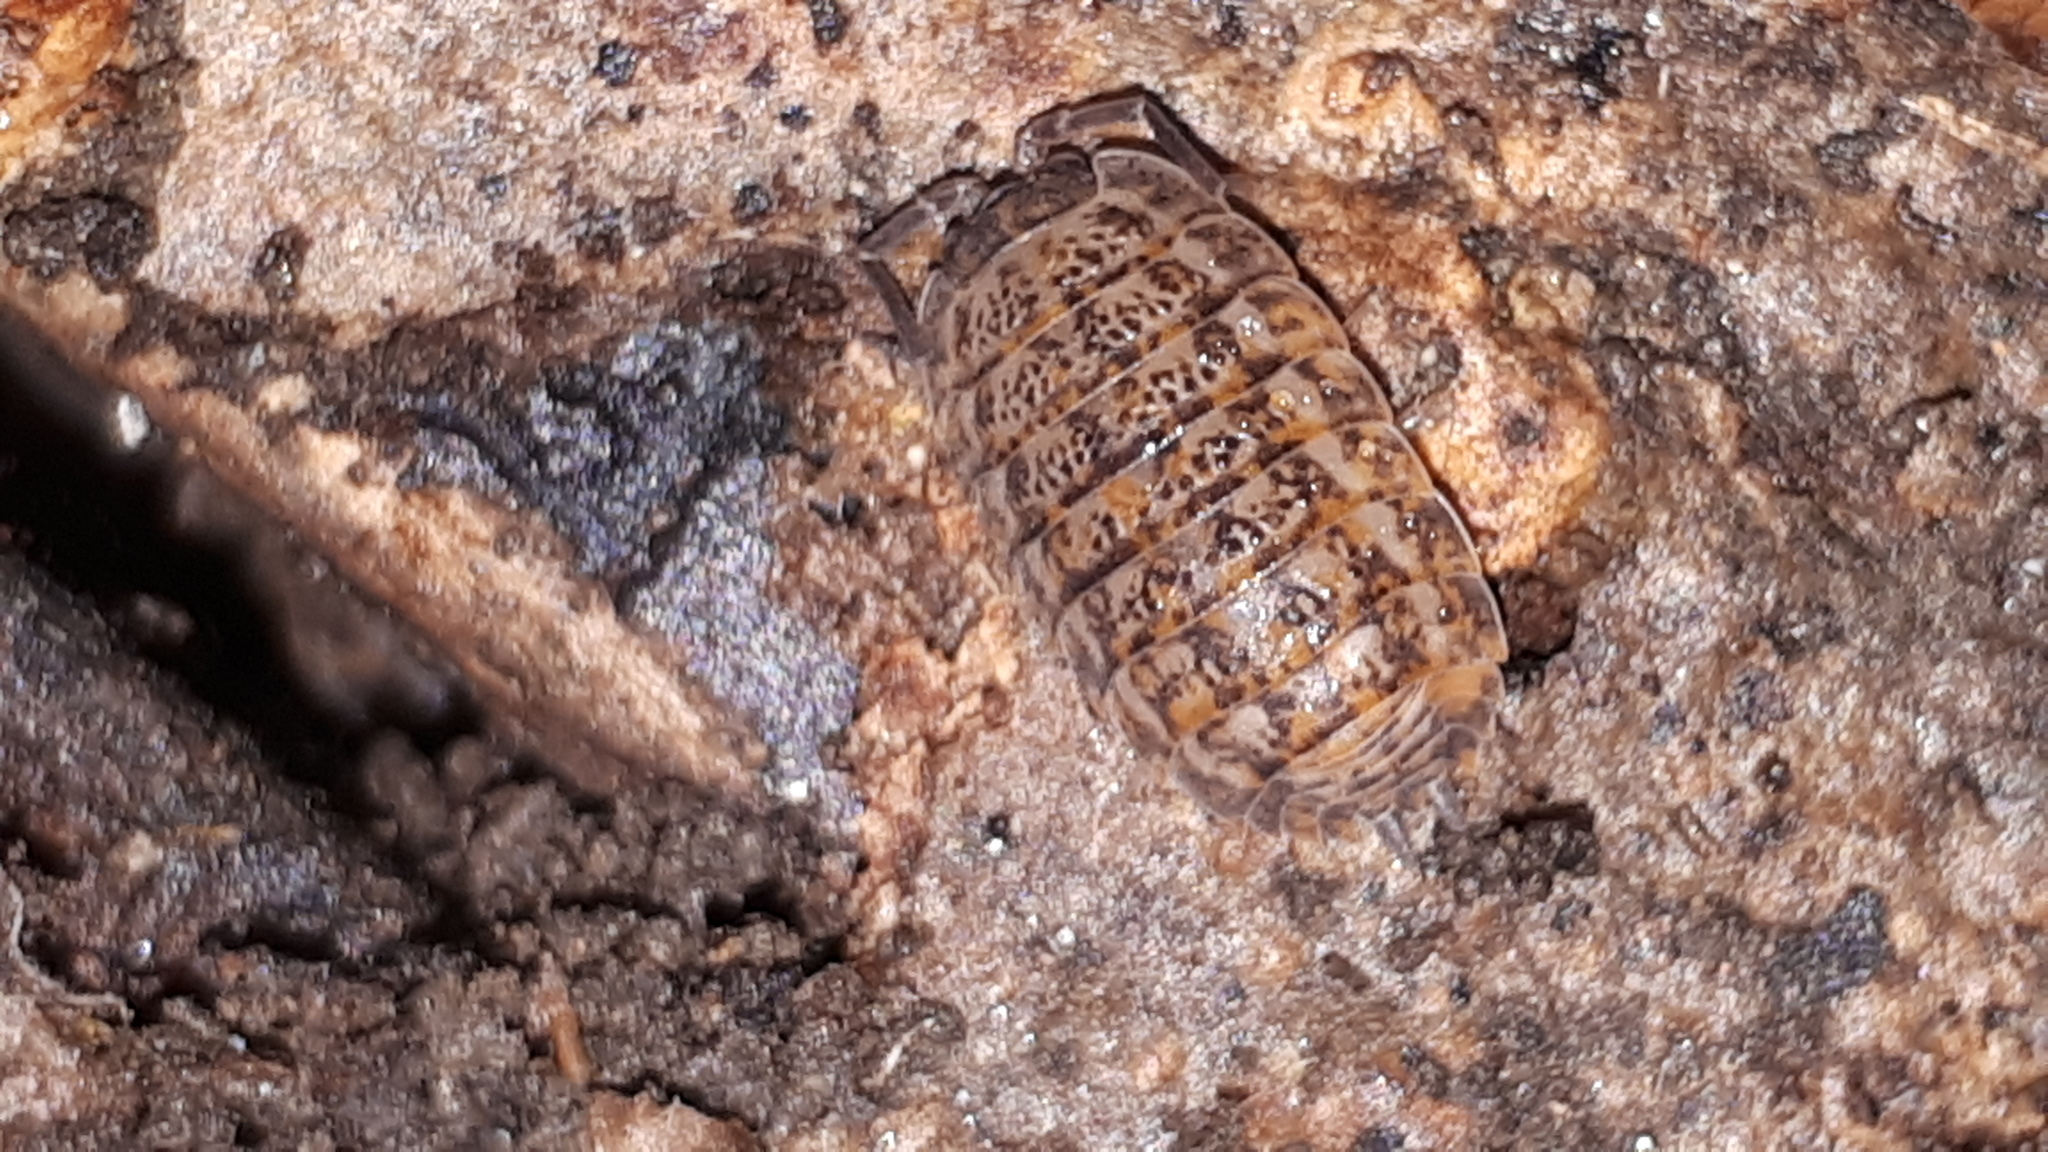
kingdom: Animalia
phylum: Arthropoda
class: Malacostraca
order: Isopoda
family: Trachelipodidae
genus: Trachelipus
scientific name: Trachelipus rathkii
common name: Isopod
